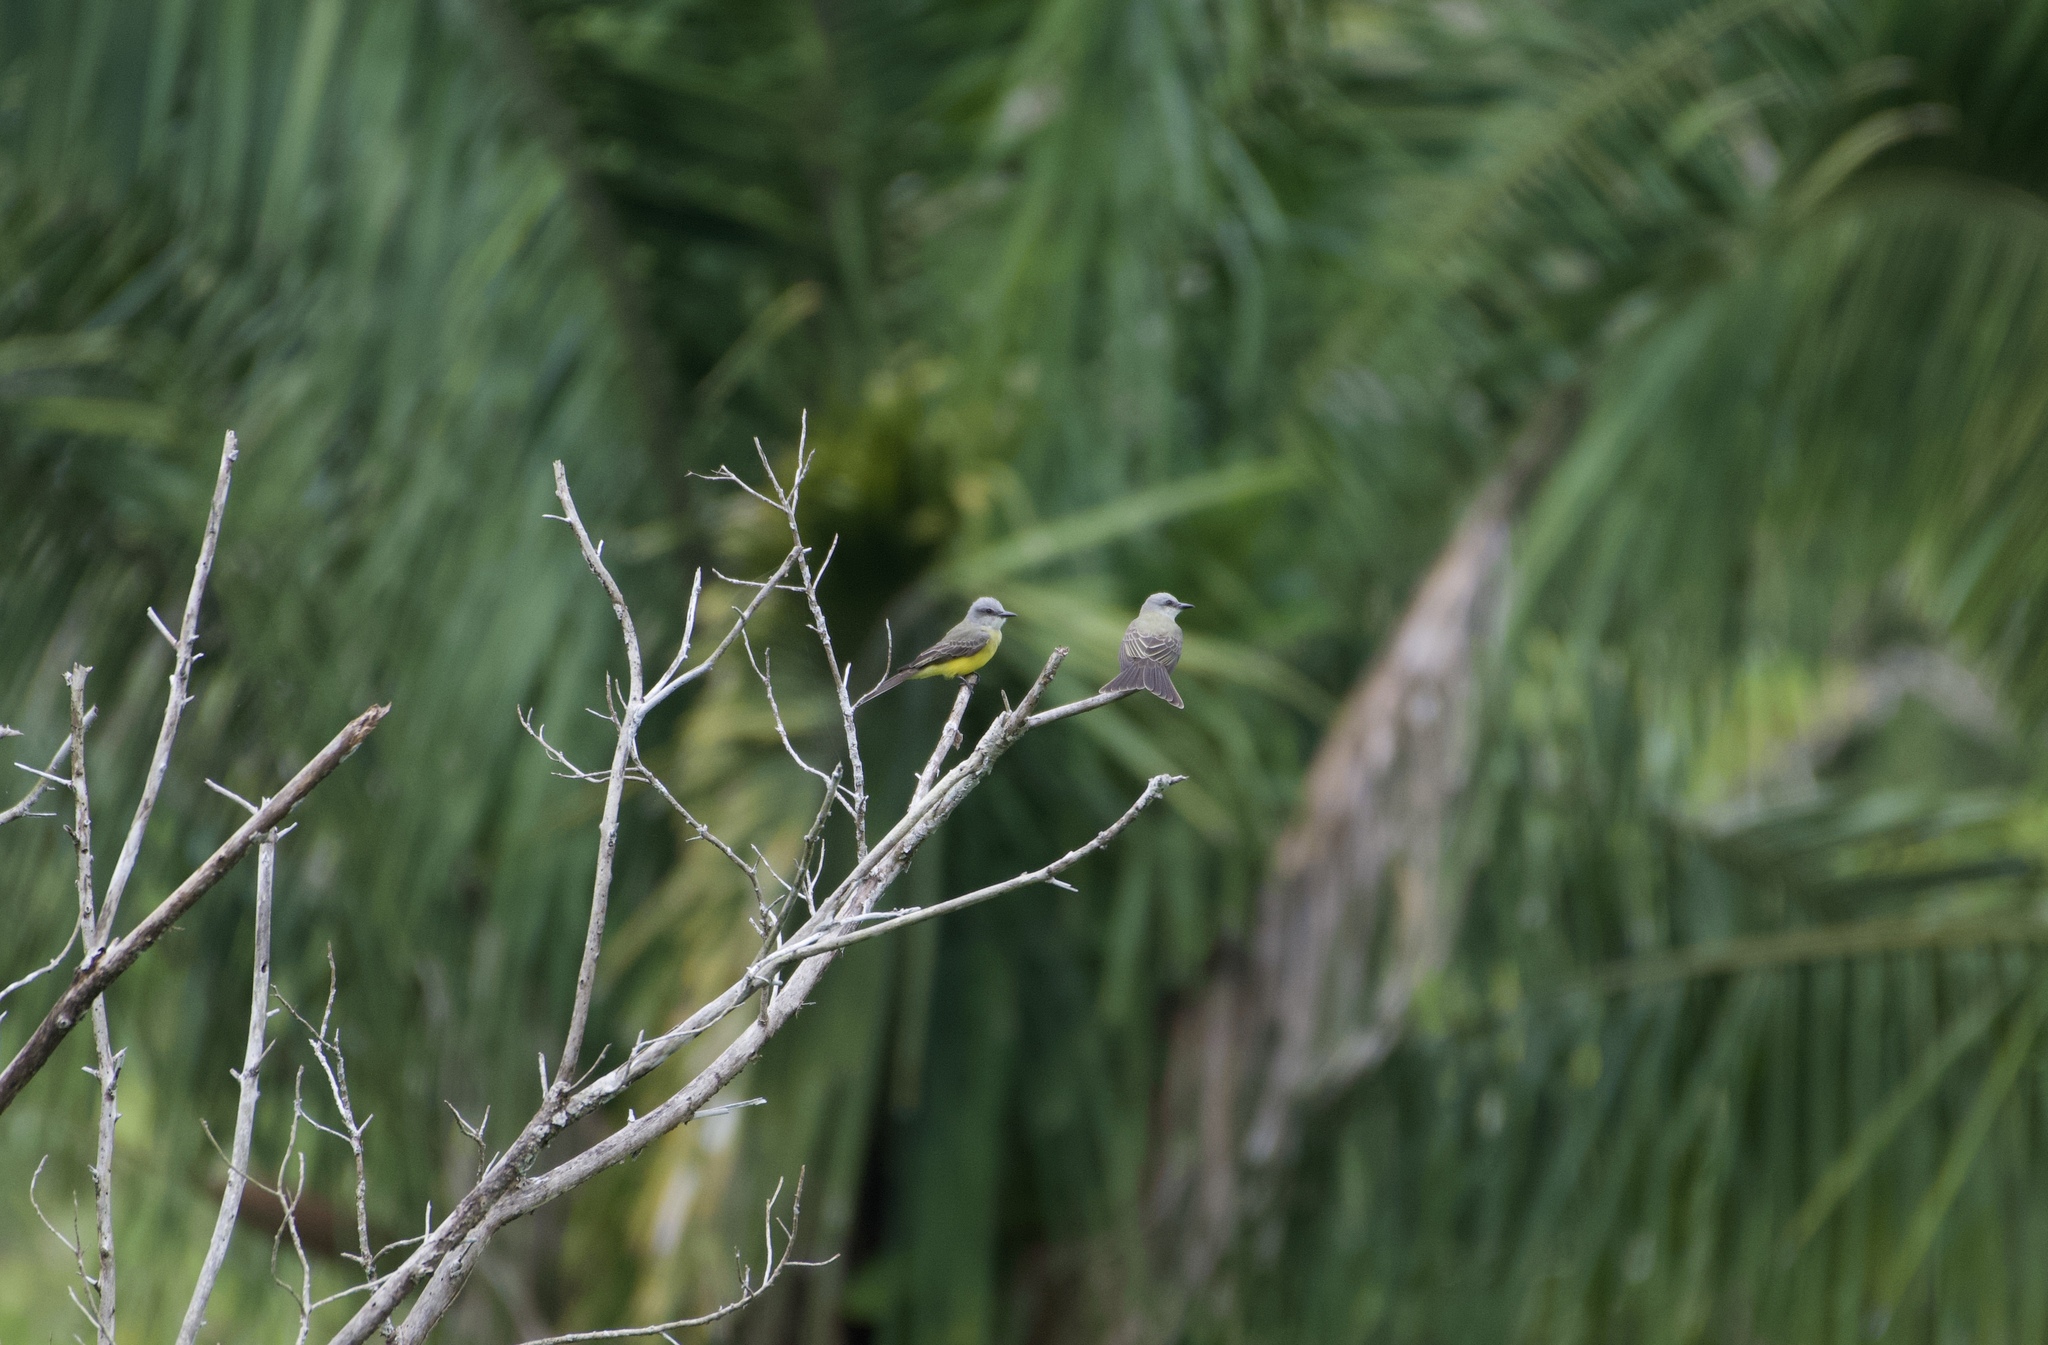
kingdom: Animalia
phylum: Chordata
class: Aves
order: Passeriformes
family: Tyrannidae
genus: Tyrannus
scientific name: Tyrannus melancholicus
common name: Tropical kingbird
